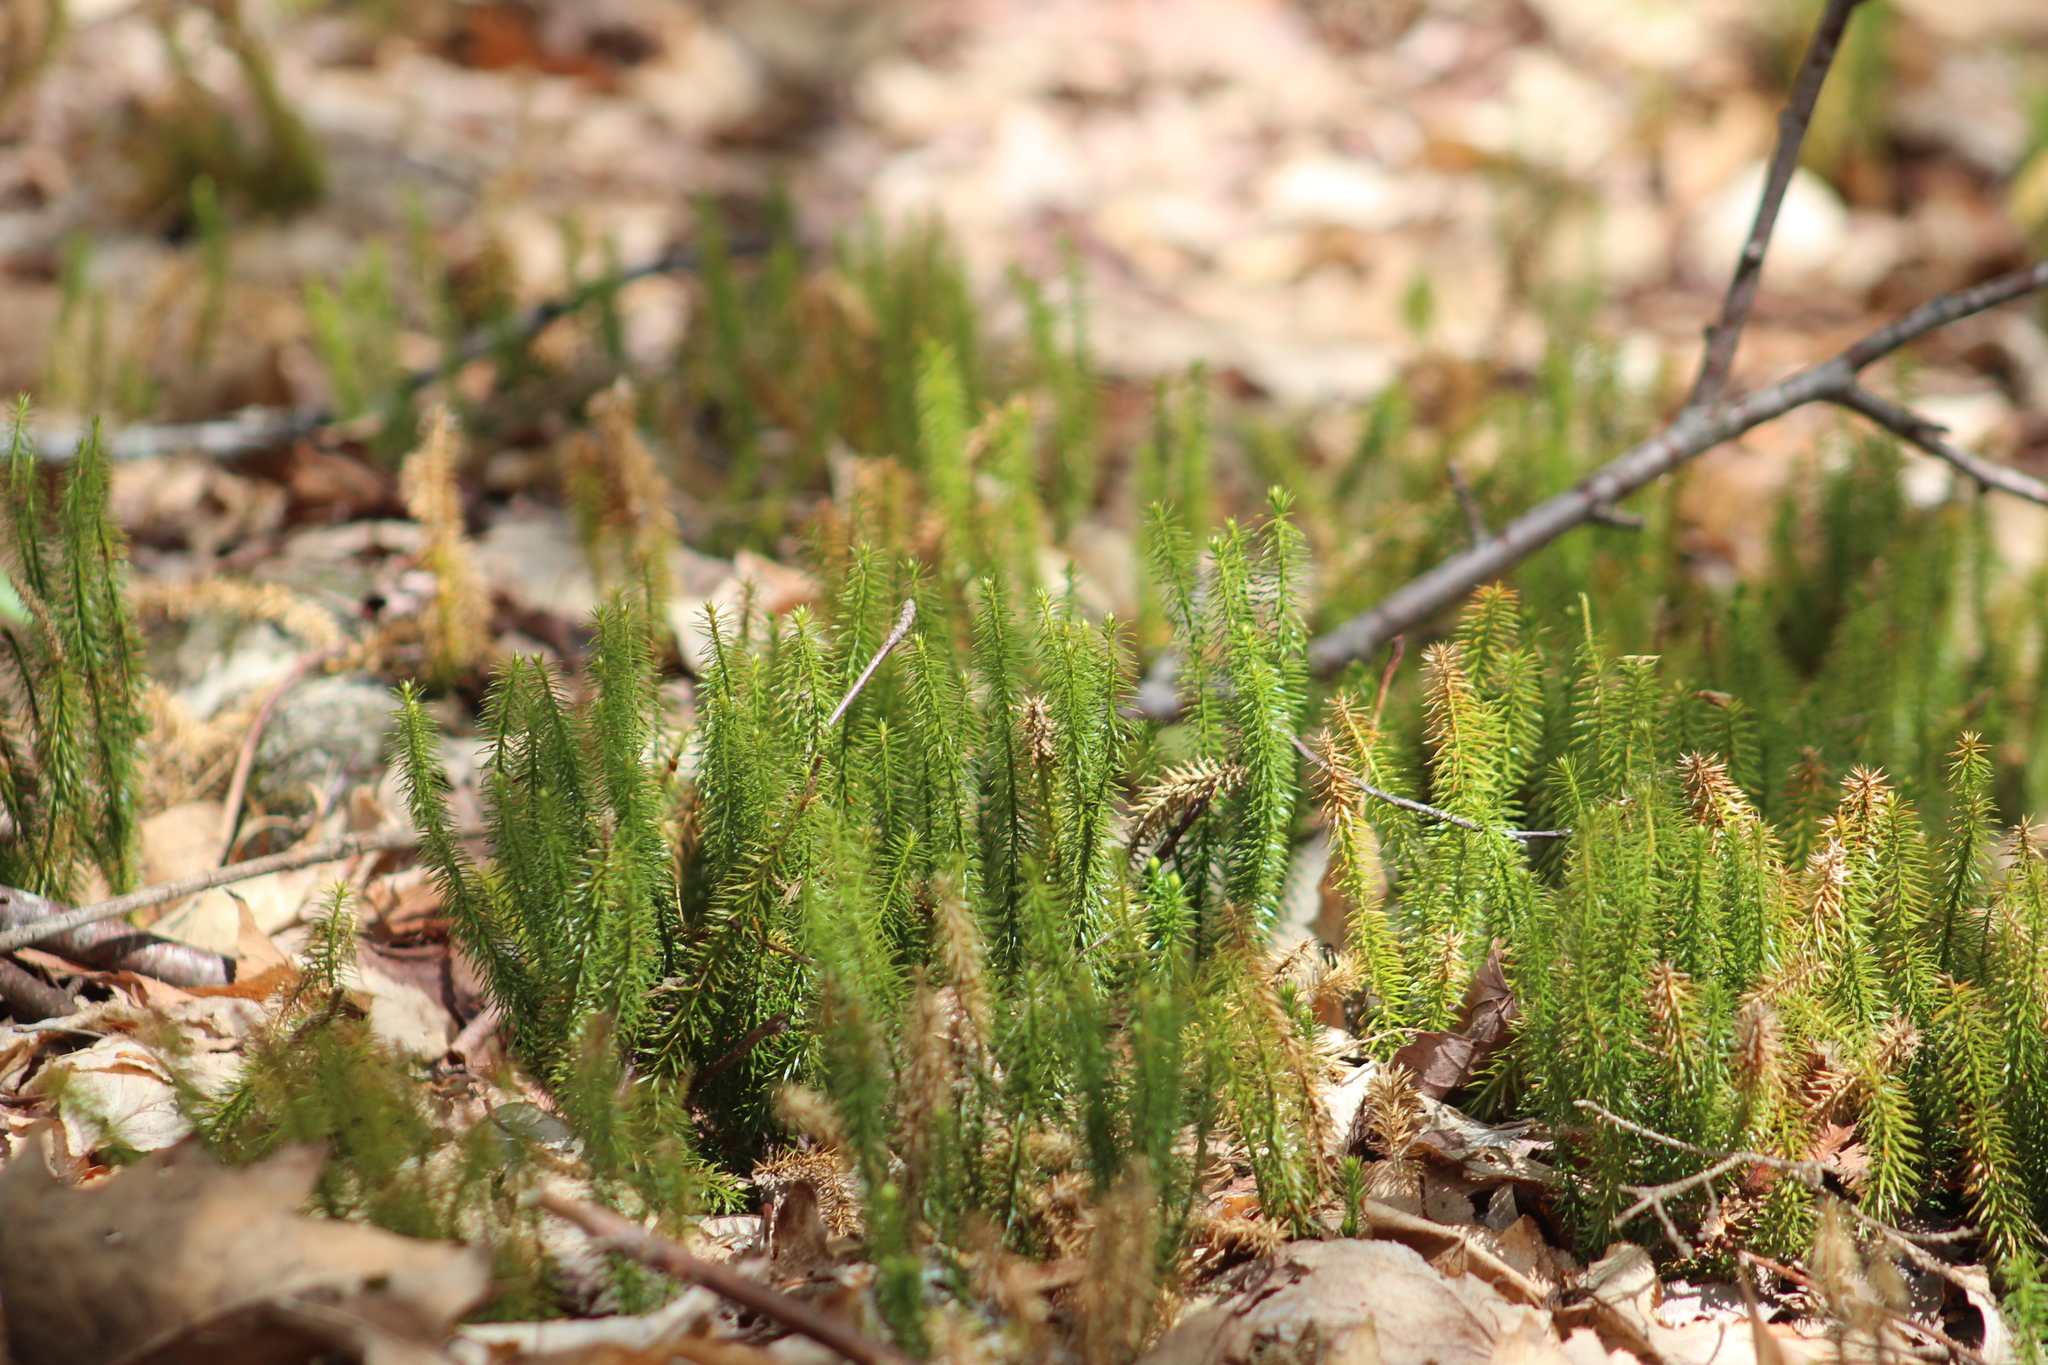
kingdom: Plantae
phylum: Tracheophyta
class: Lycopodiopsida
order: Lycopodiales
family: Lycopodiaceae
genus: Spinulum
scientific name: Spinulum annotinum
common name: Interrupted club-moss
